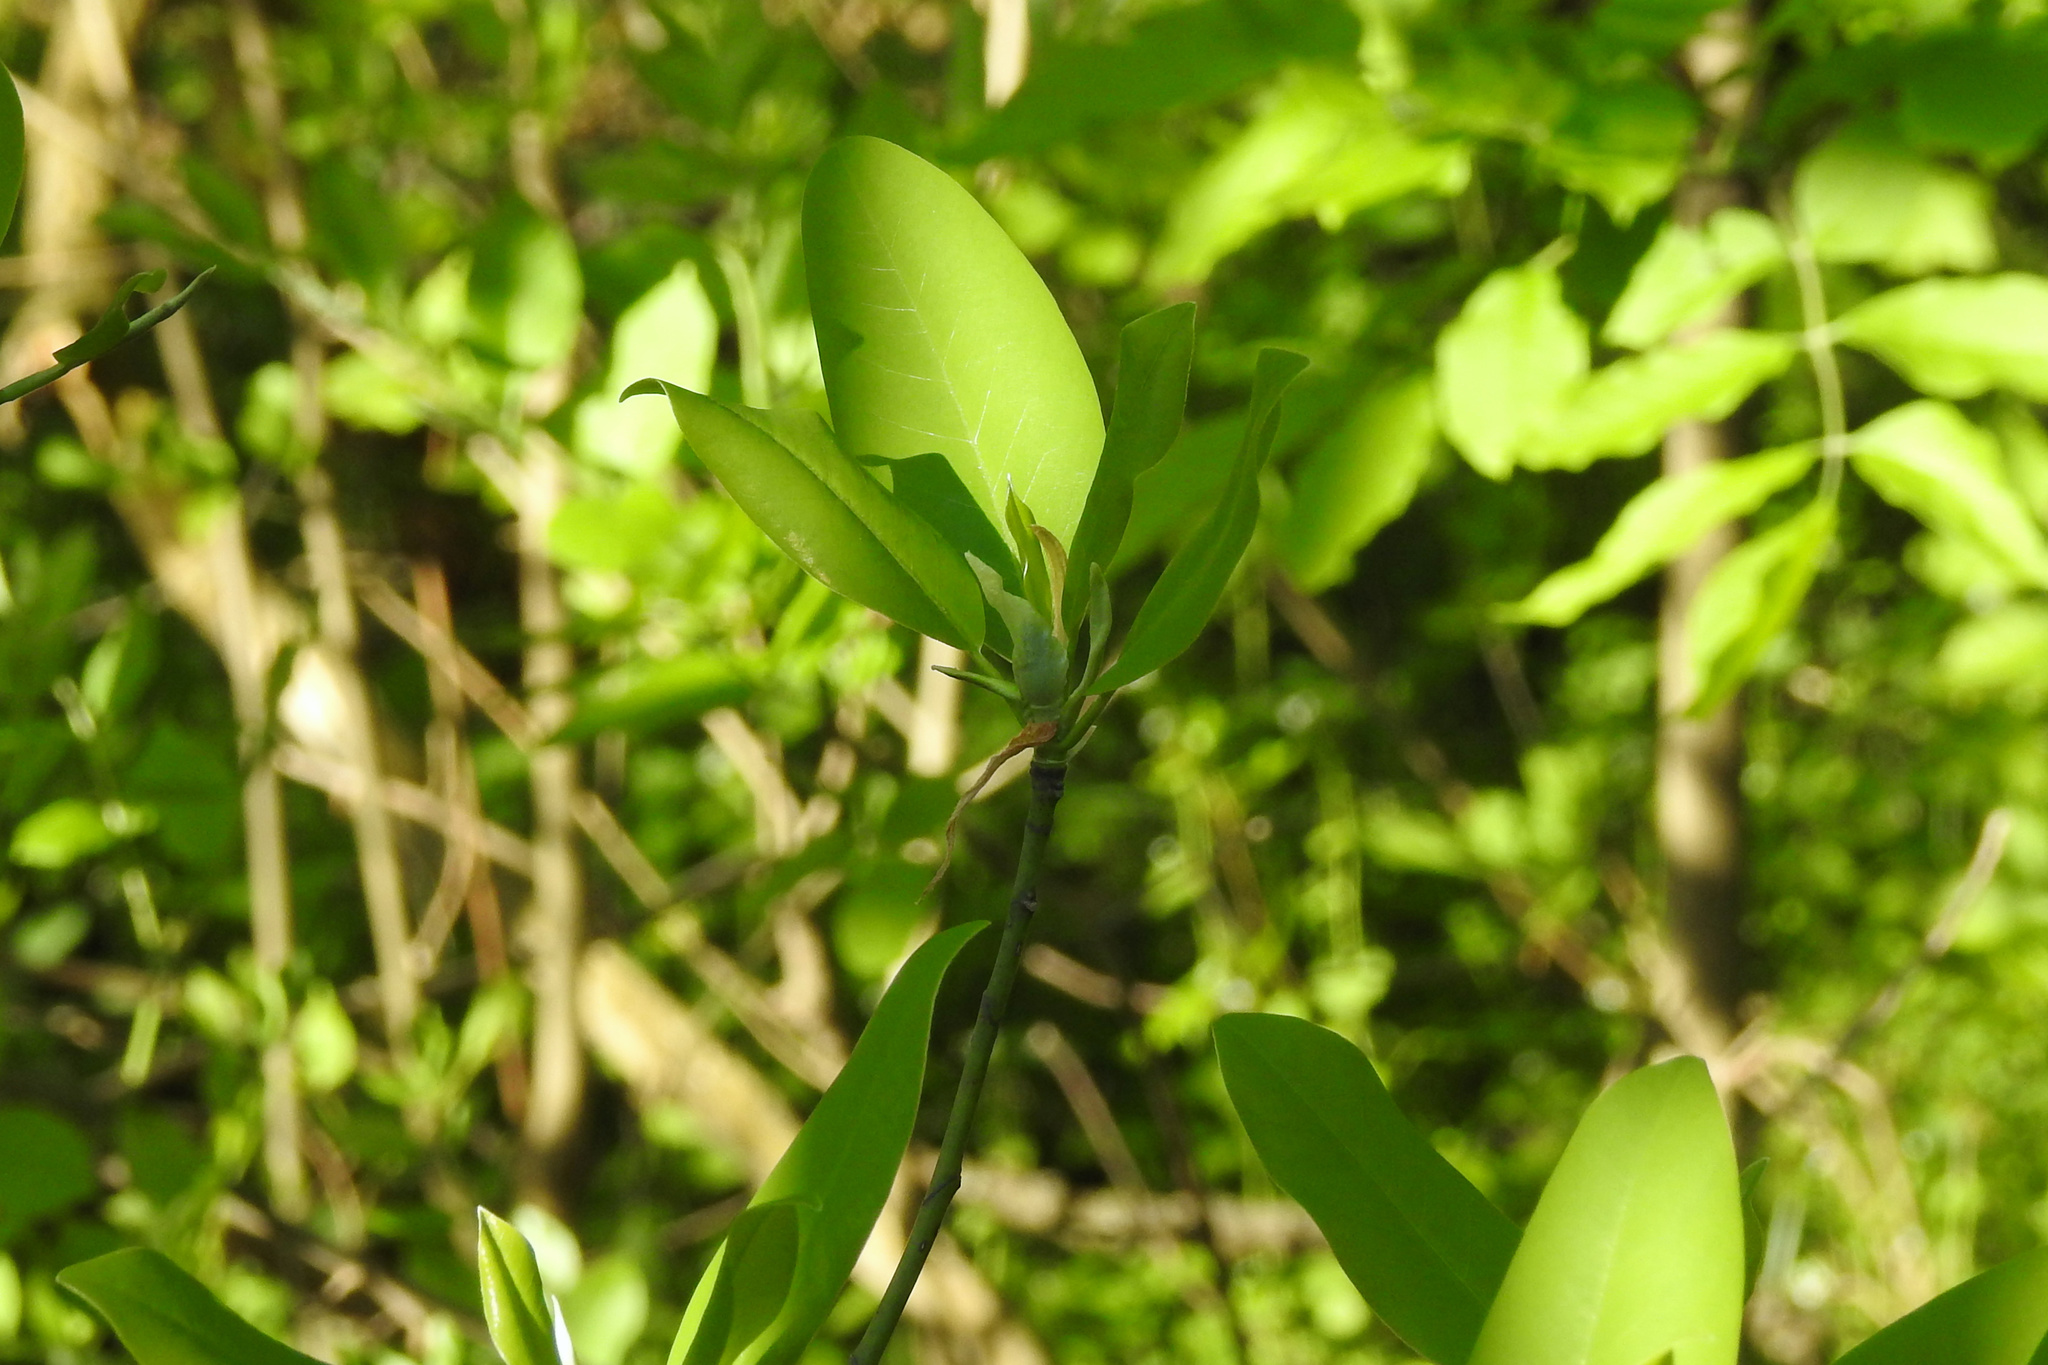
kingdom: Plantae
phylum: Tracheophyta
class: Magnoliopsida
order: Magnoliales
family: Magnoliaceae
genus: Magnolia
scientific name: Magnolia virginiana
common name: Swamp bay
